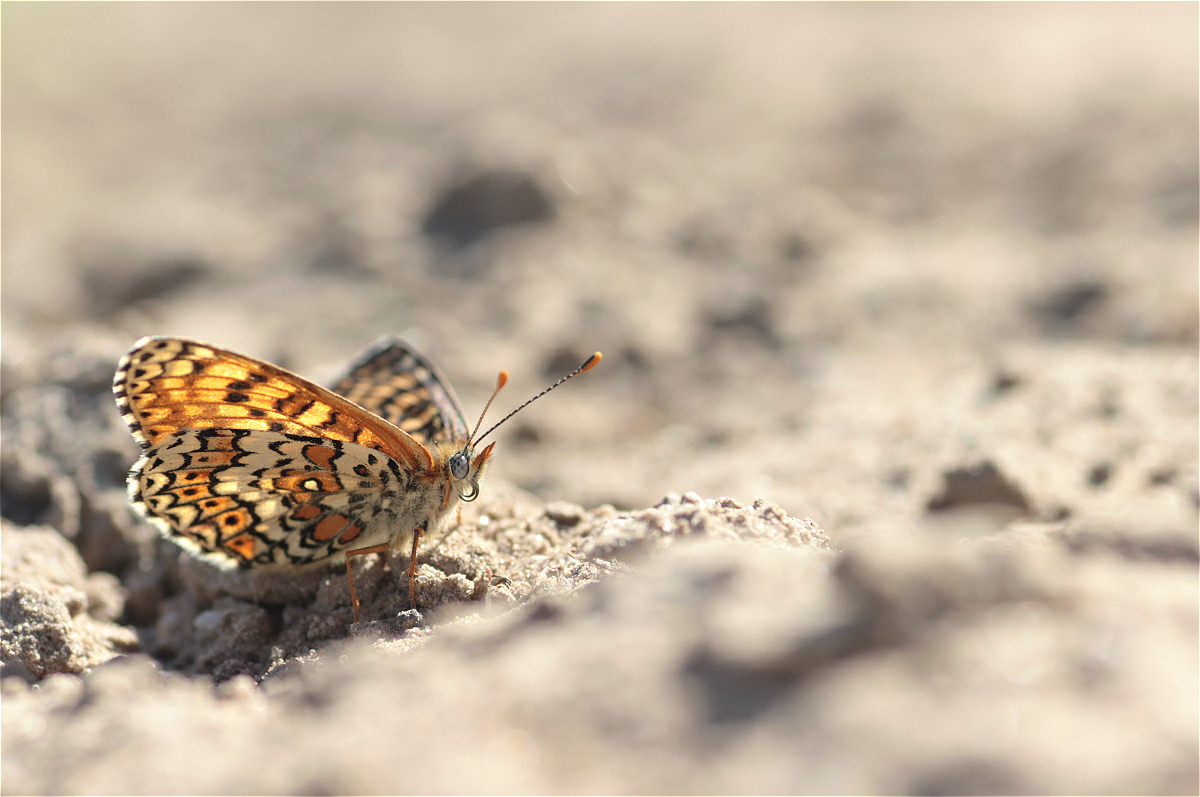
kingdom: Animalia
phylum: Arthropoda
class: Insecta
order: Lepidoptera
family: Nymphalidae
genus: Melitaea
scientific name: Melitaea cinxia
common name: Glanville fritillary
